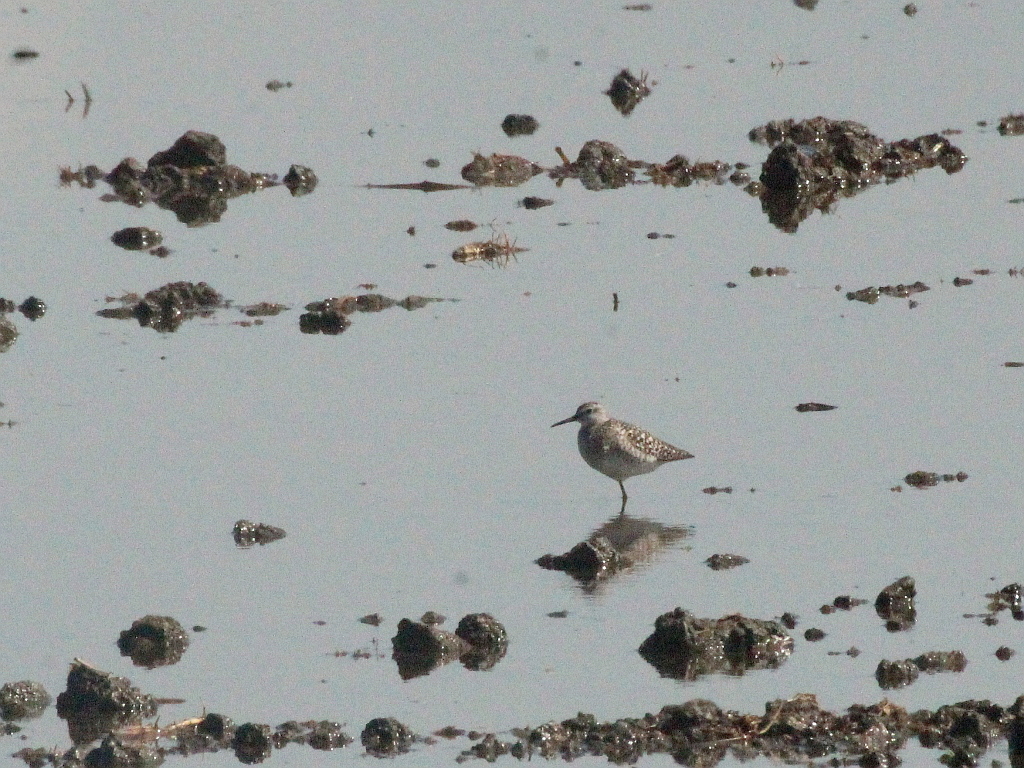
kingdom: Animalia
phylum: Chordata
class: Aves
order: Charadriiformes
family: Scolopacidae
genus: Tringa
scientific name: Tringa glareola
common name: Wood sandpiper
